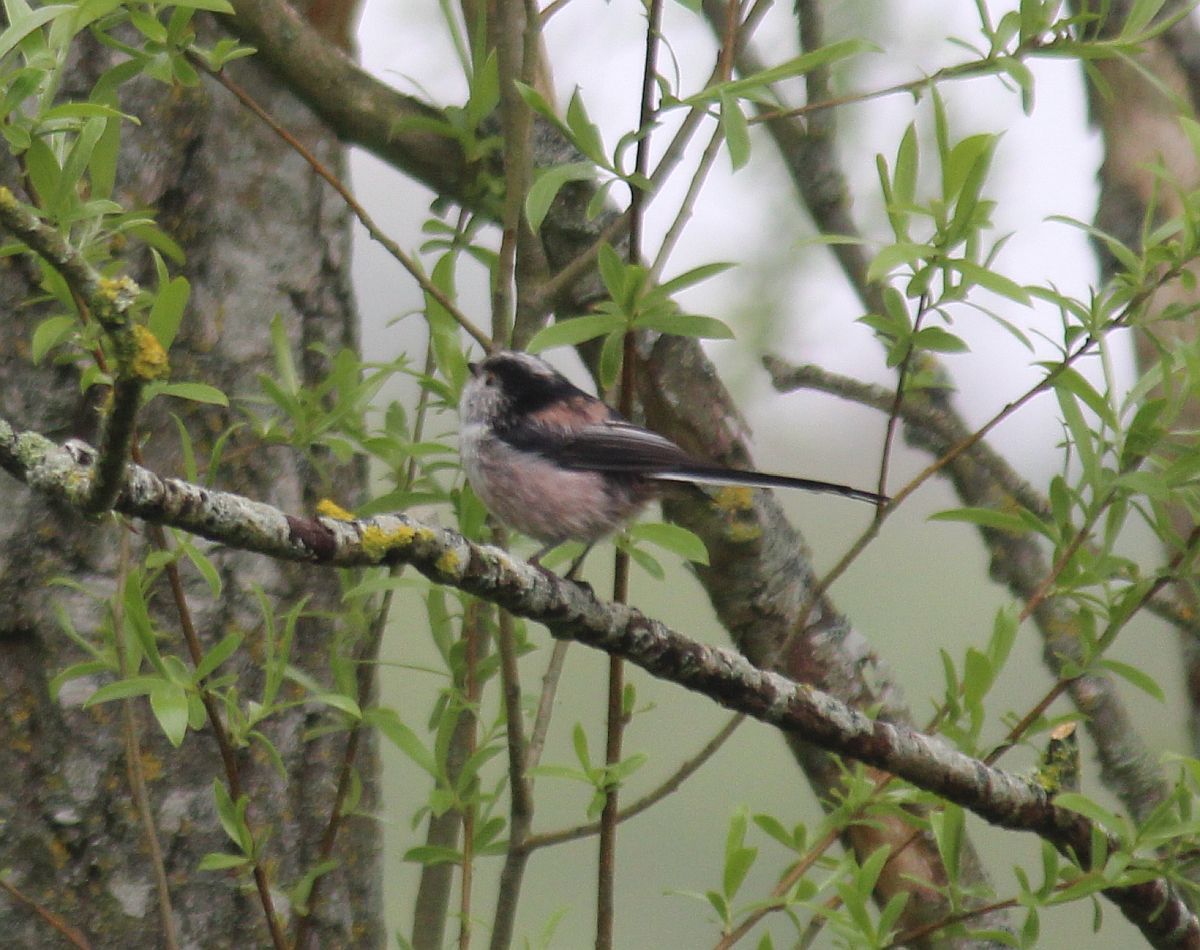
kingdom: Animalia
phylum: Chordata
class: Aves
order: Passeriformes
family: Aegithalidae
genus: Aegithalos
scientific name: Aegithalos caudatus
